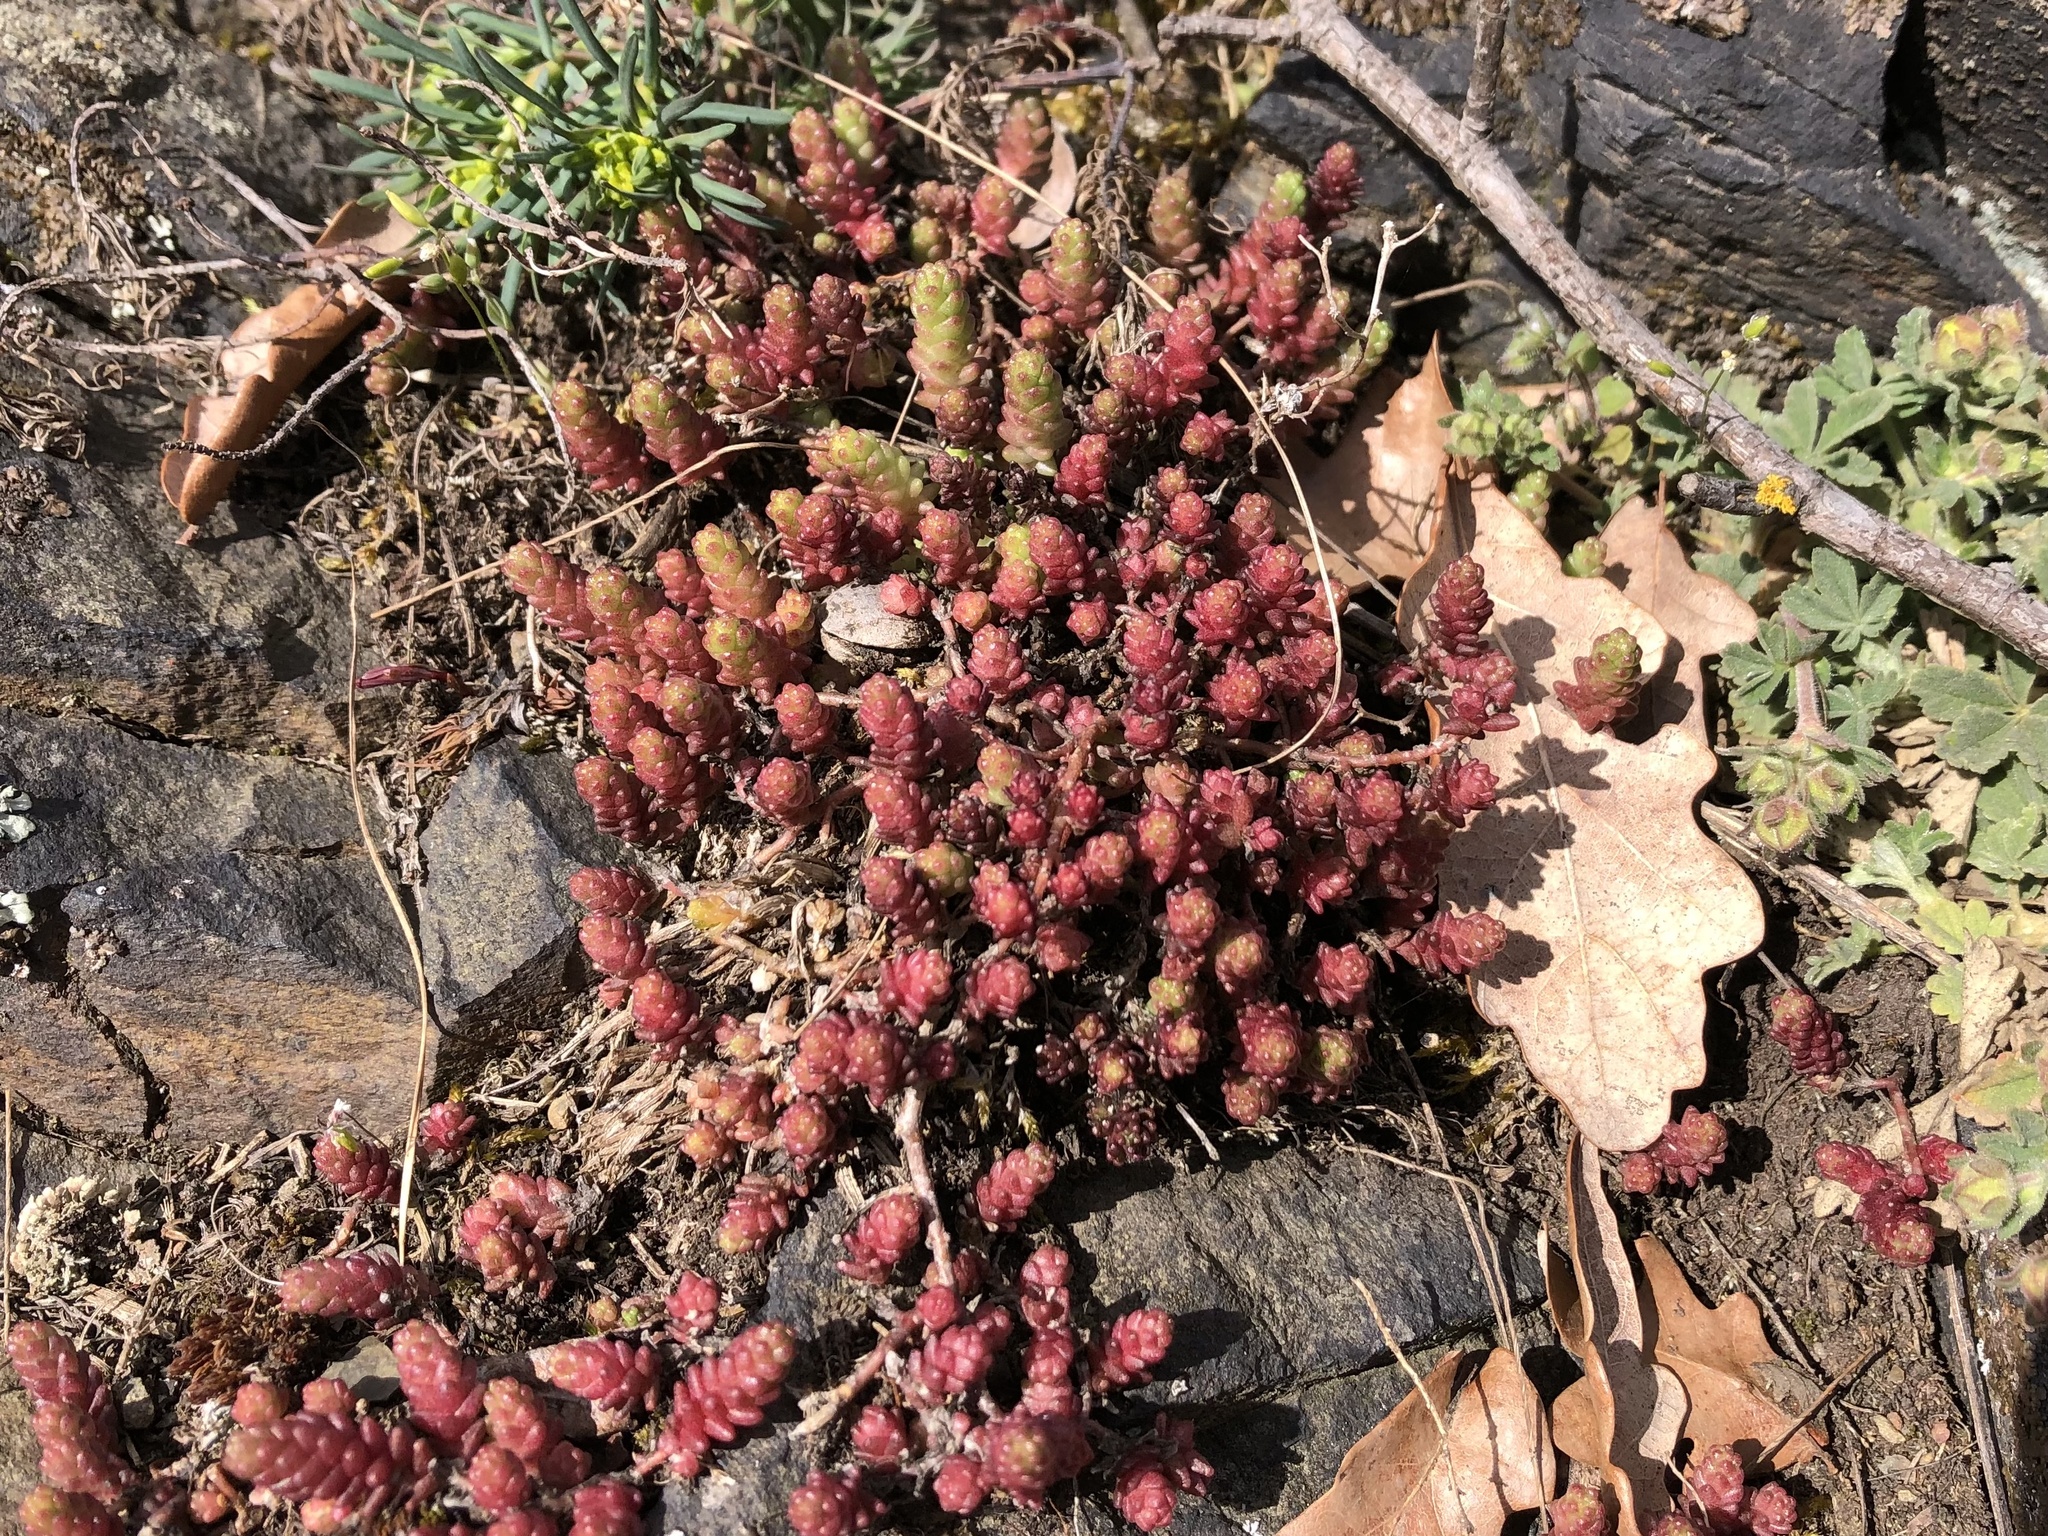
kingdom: Plantae
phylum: Tracheophyta
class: Magnoliopsida
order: Saxifragales
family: Crassulaceae
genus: Sedum
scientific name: Sedum acre
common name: Biting stonecrop
